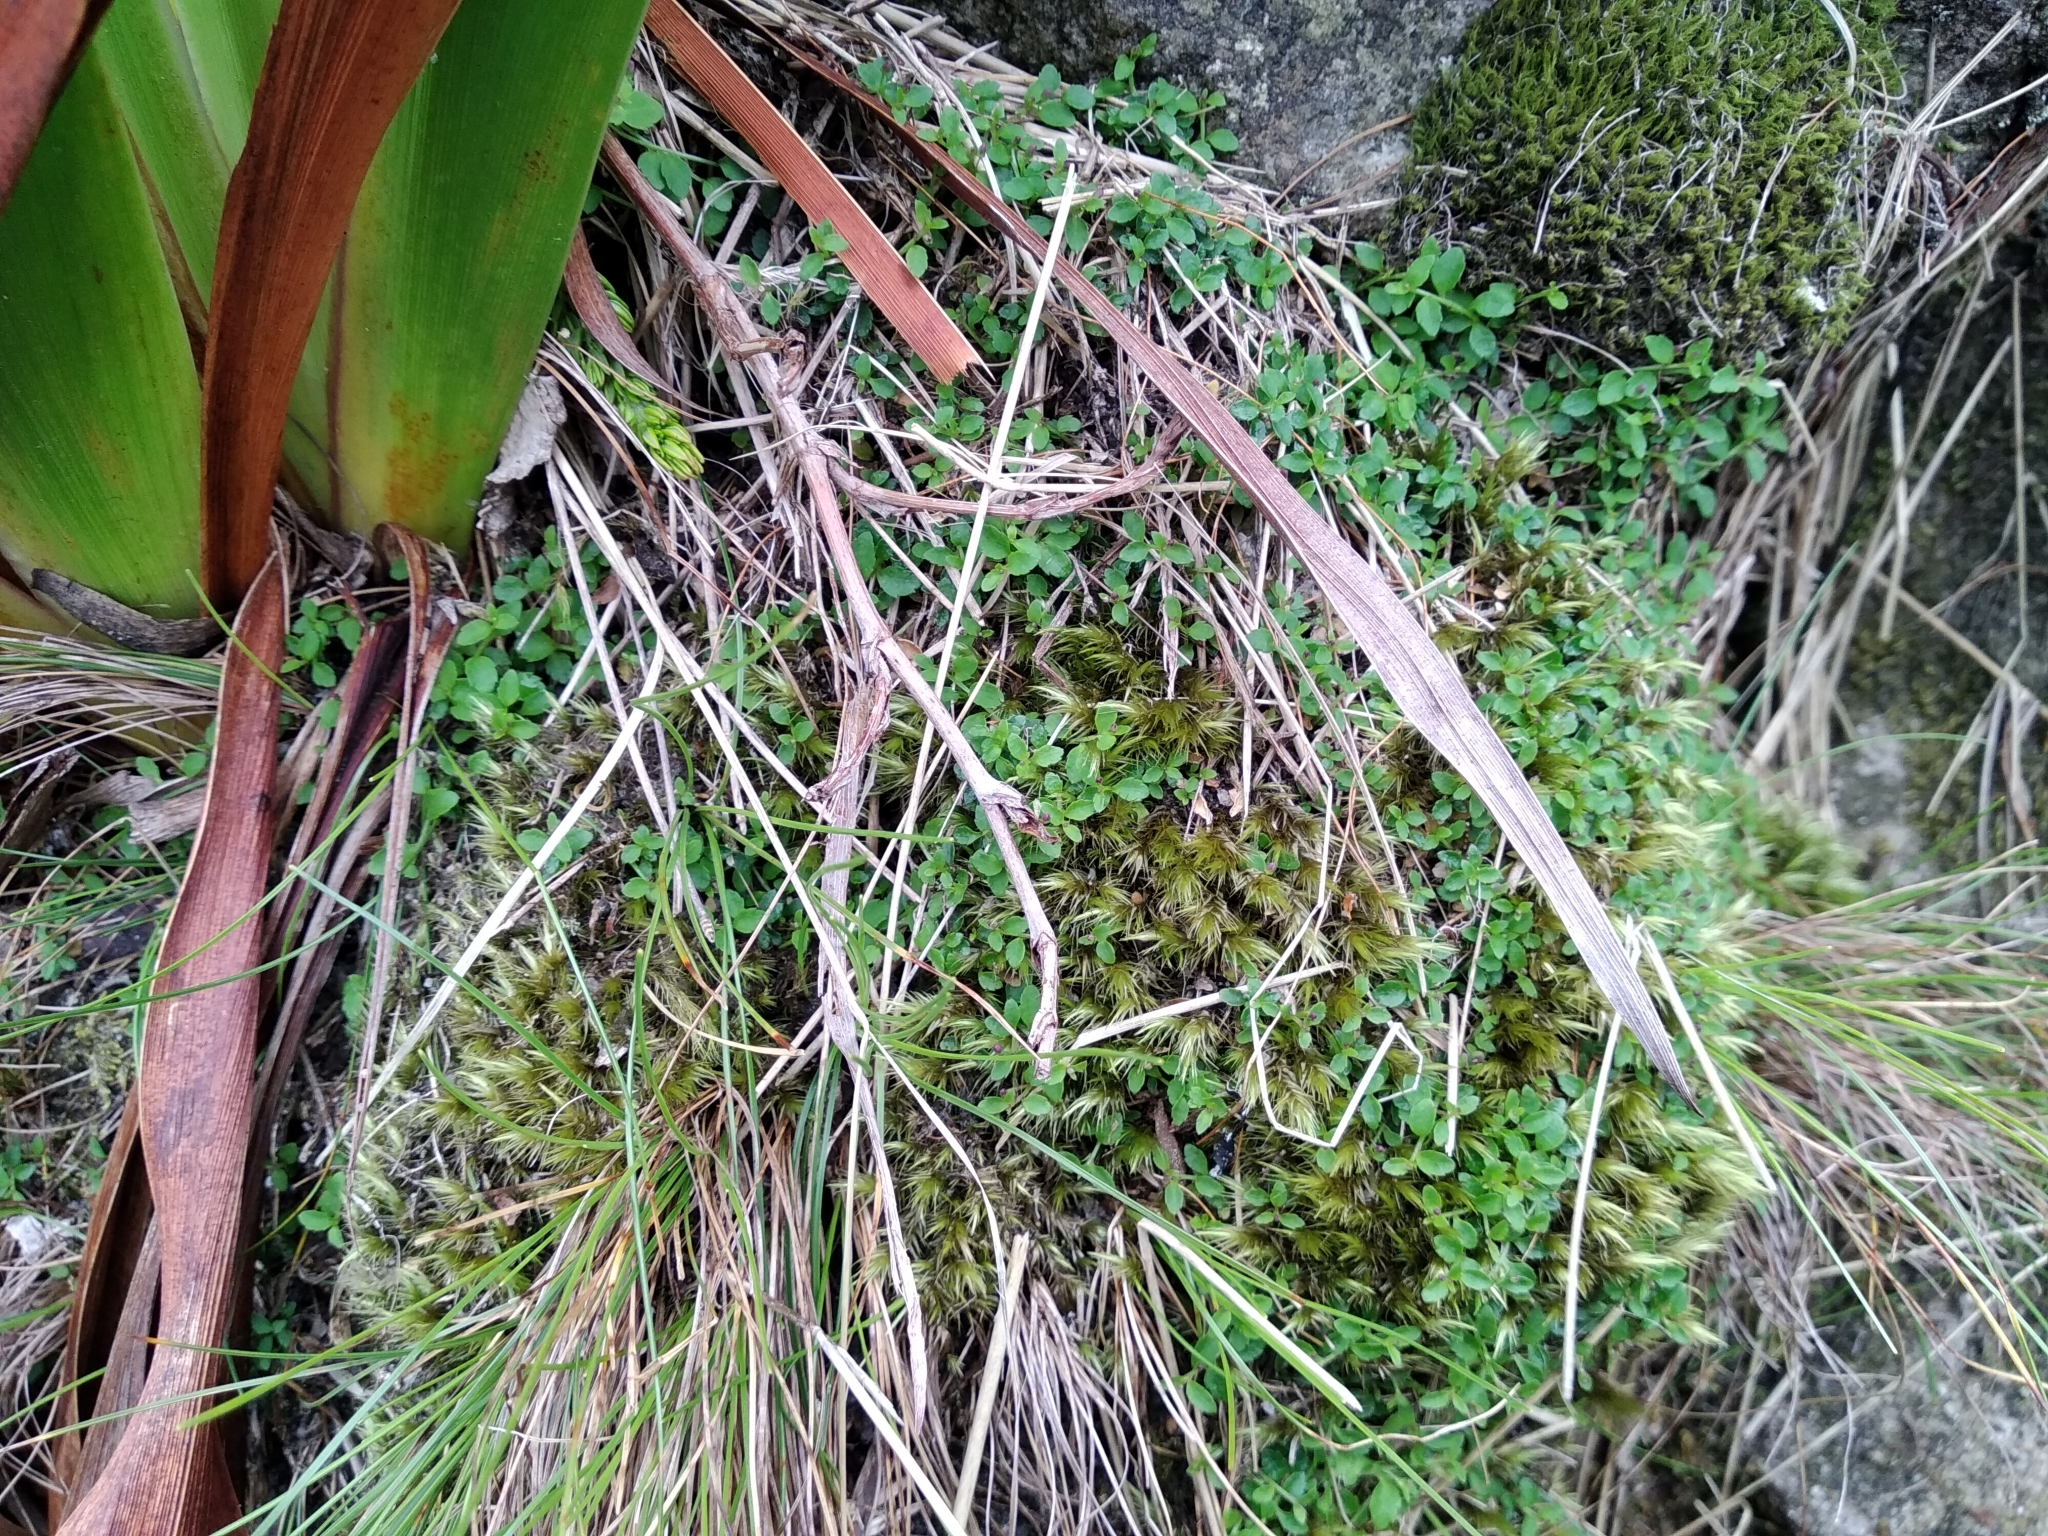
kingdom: Plantae
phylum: Tracheophyta
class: Magnoliopsida
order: Asterales
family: Campanulaceae
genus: Unigenes
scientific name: Unigenes humifusa
